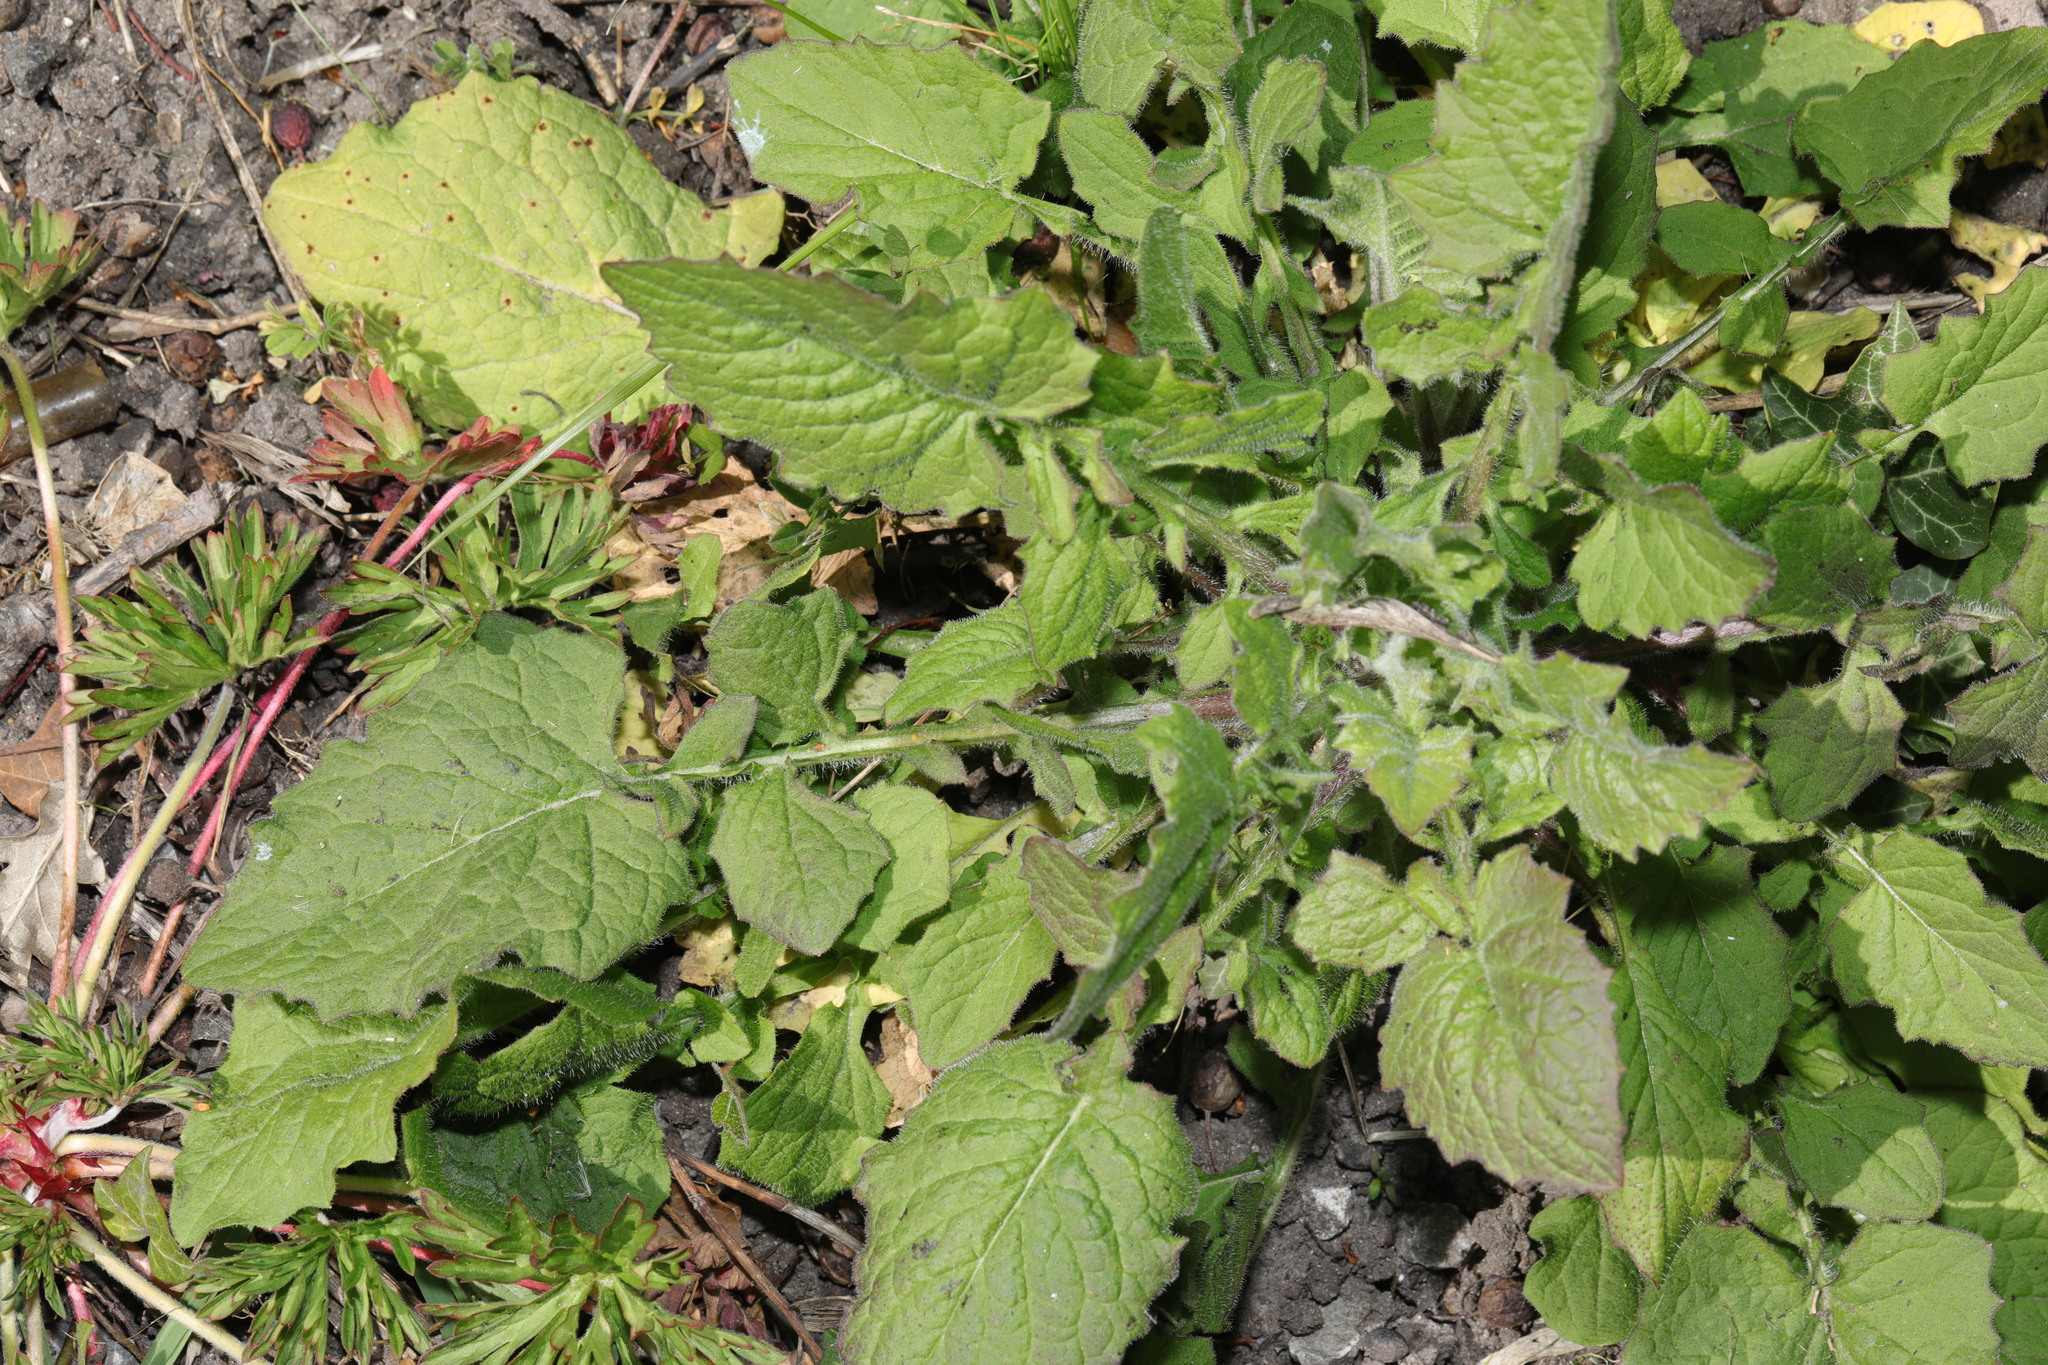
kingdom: Plantae
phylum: Tracheophyta
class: Magnoliopsida
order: Asterales
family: Asteraceae
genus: Lapsana
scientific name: Lapsana communis
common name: Nipplewort
